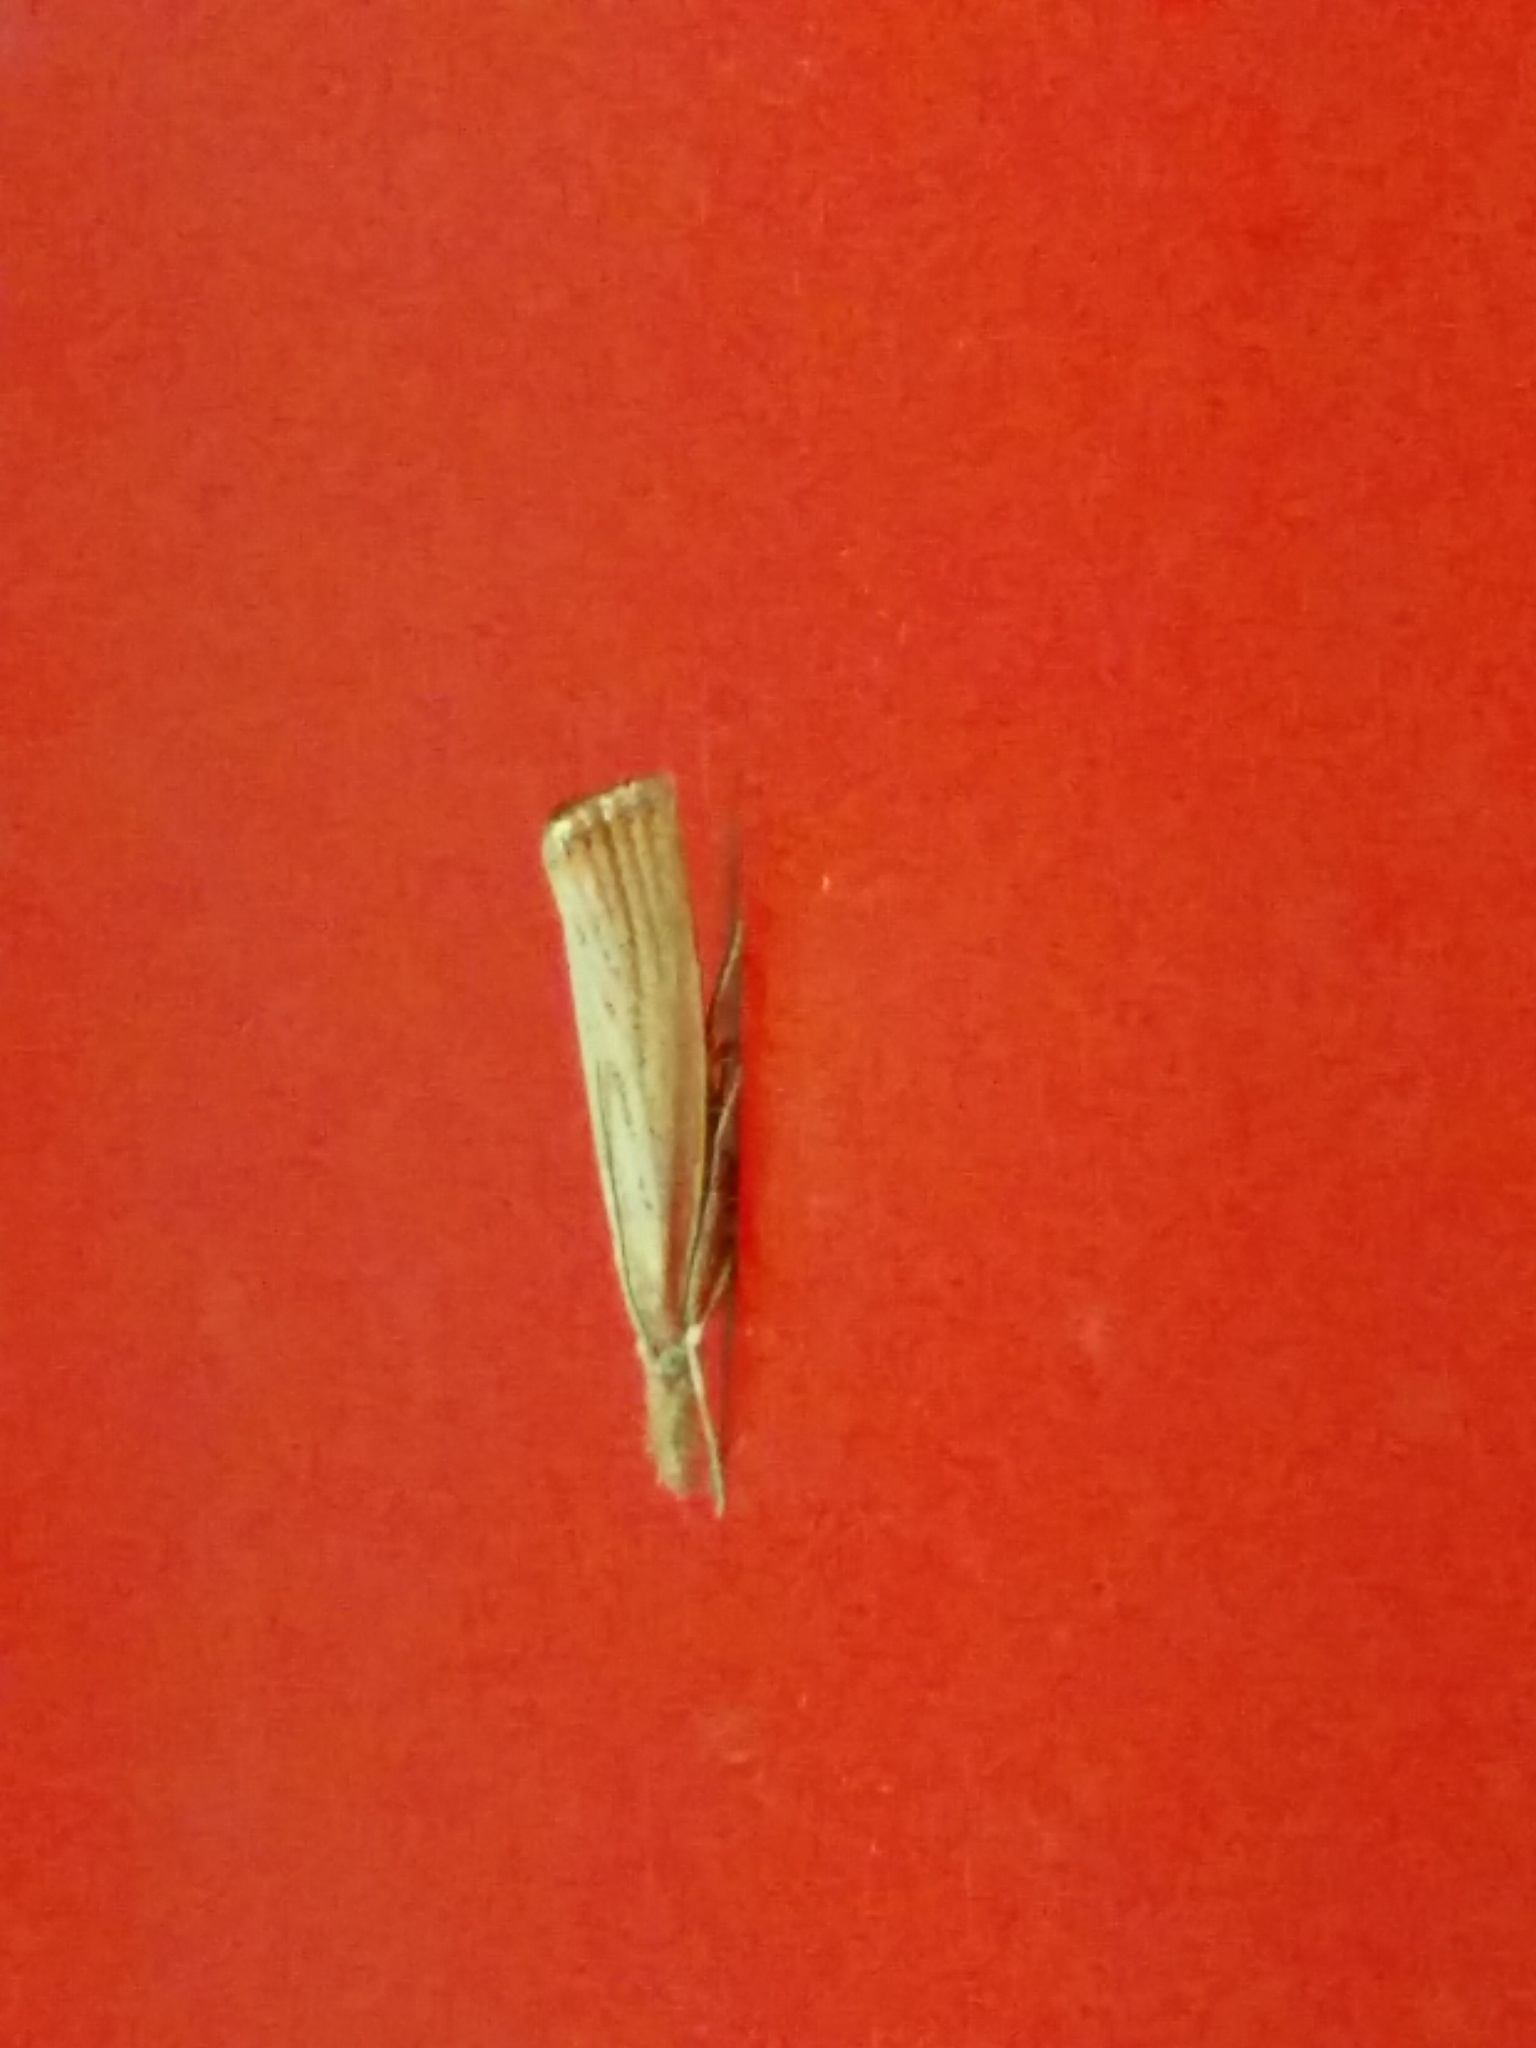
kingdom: Animalia
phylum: Arthropoda
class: Insecta
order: Lepidoptera
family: Crambidae
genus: Agriphila
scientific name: Agriphila straminella
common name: Straw grass-veneer
